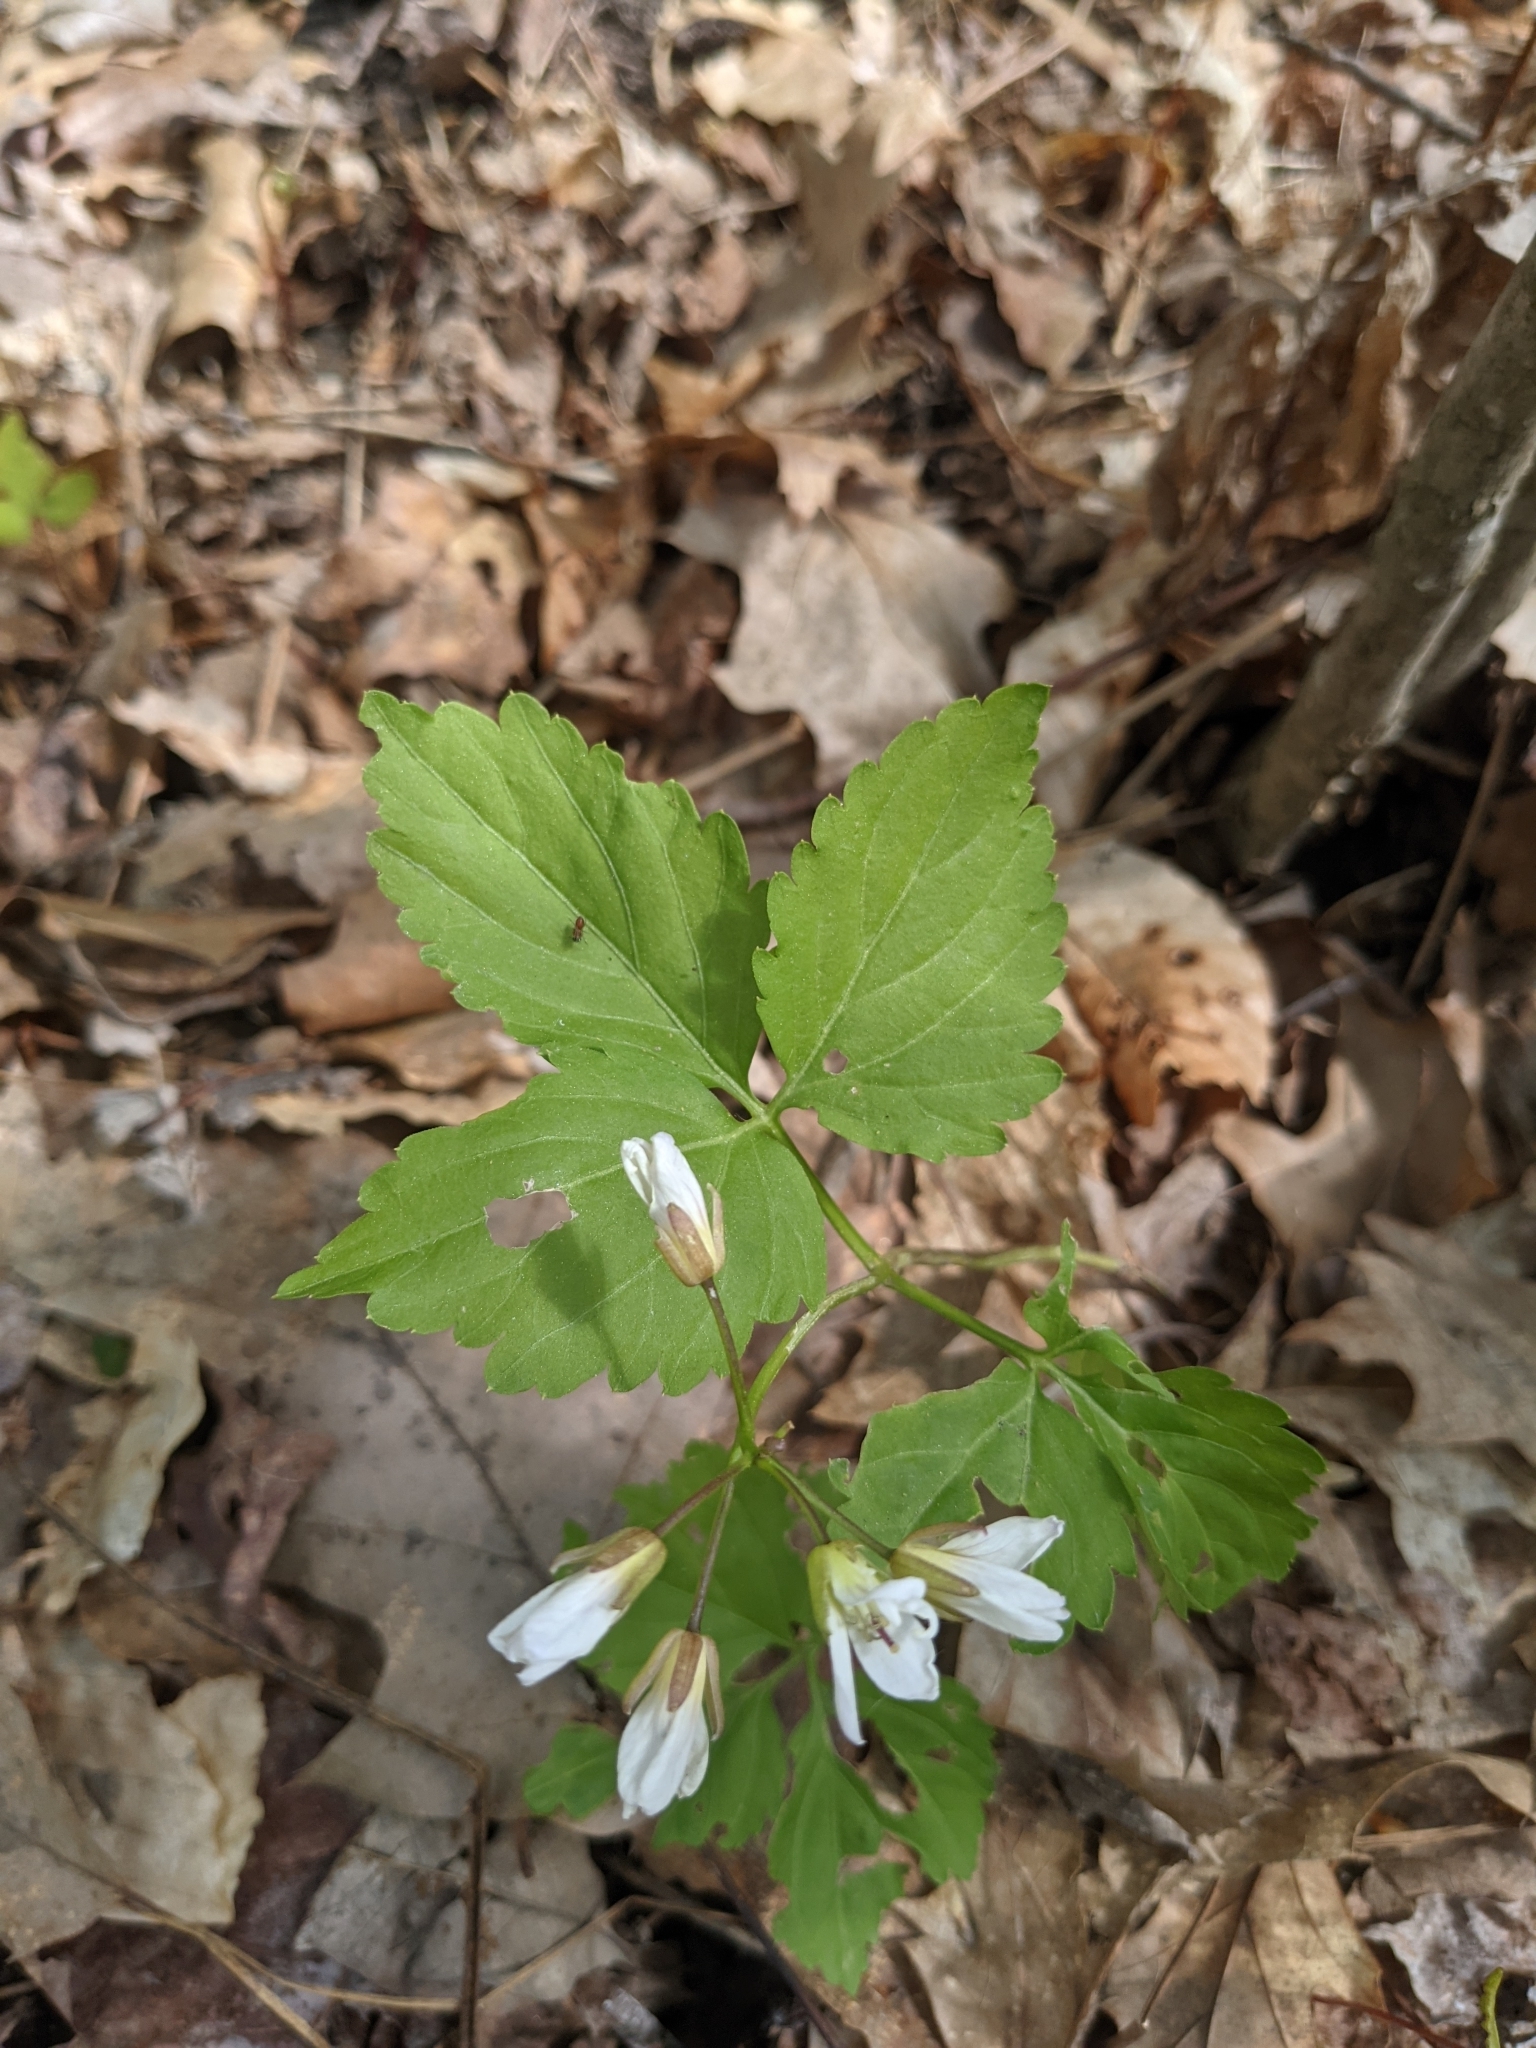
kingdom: Plantae
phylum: Tracheophyta
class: Magnoliopsida
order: Brassicales
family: Brassicaceae
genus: Cardamine
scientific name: Cardamine diphylla
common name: Broad-leaved toothwort
